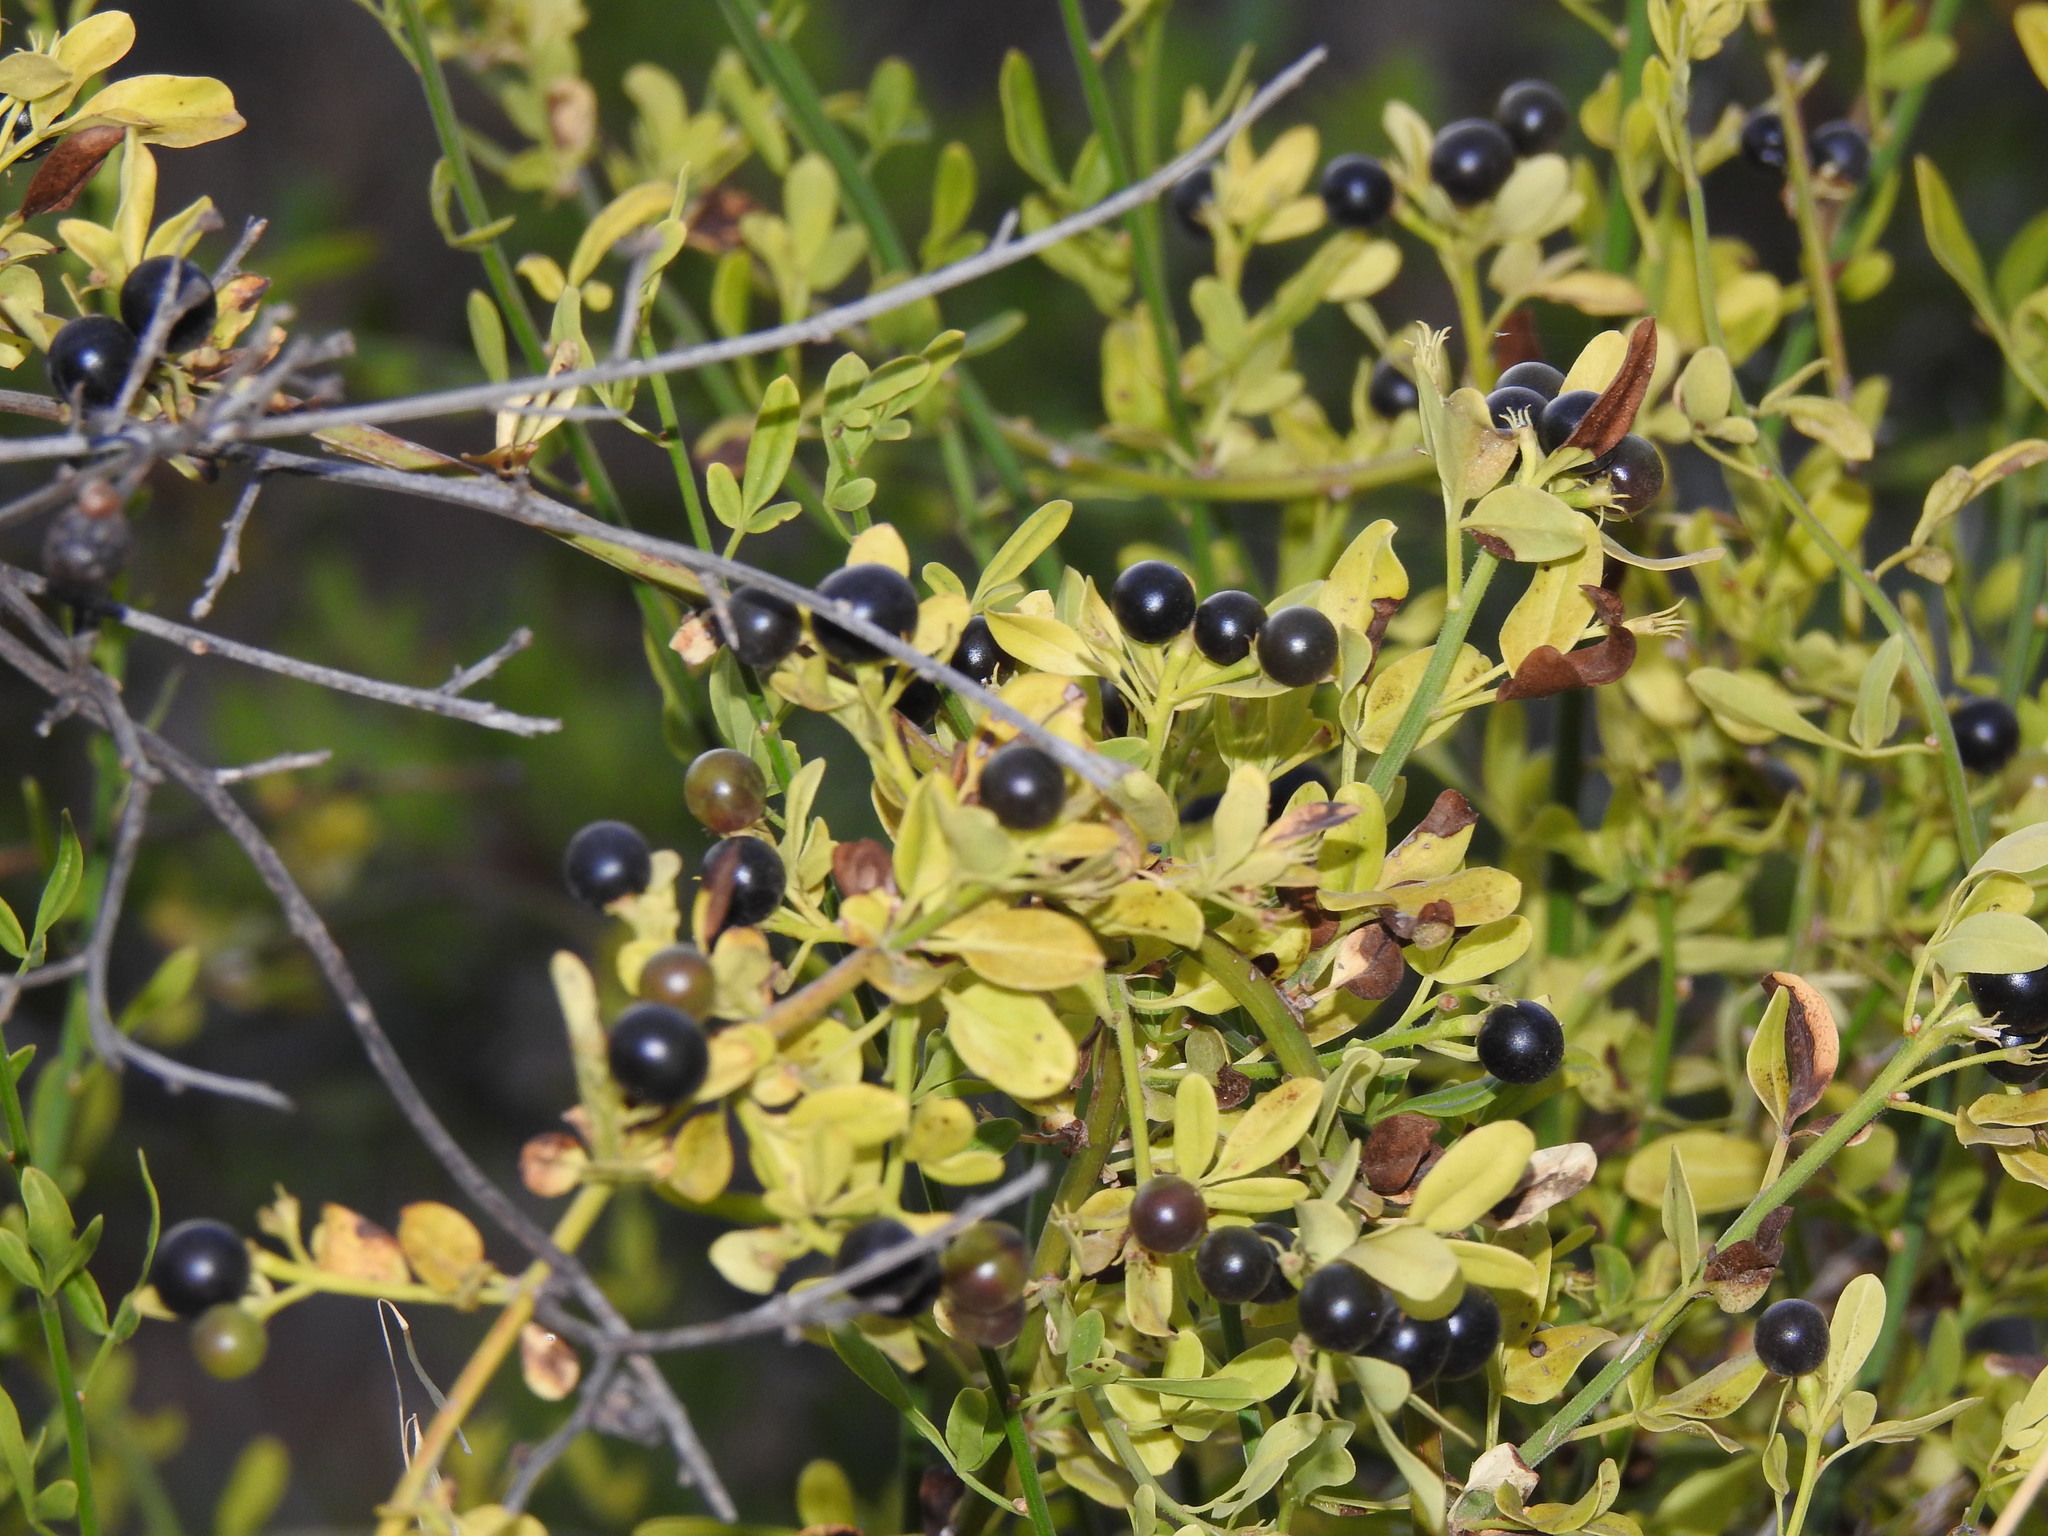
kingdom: Plantae
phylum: Tracheophyta
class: Magnoliopsida
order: Lamiales
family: Oleaceae
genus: Chrysojasminum
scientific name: Chrysojasminum fruticans
